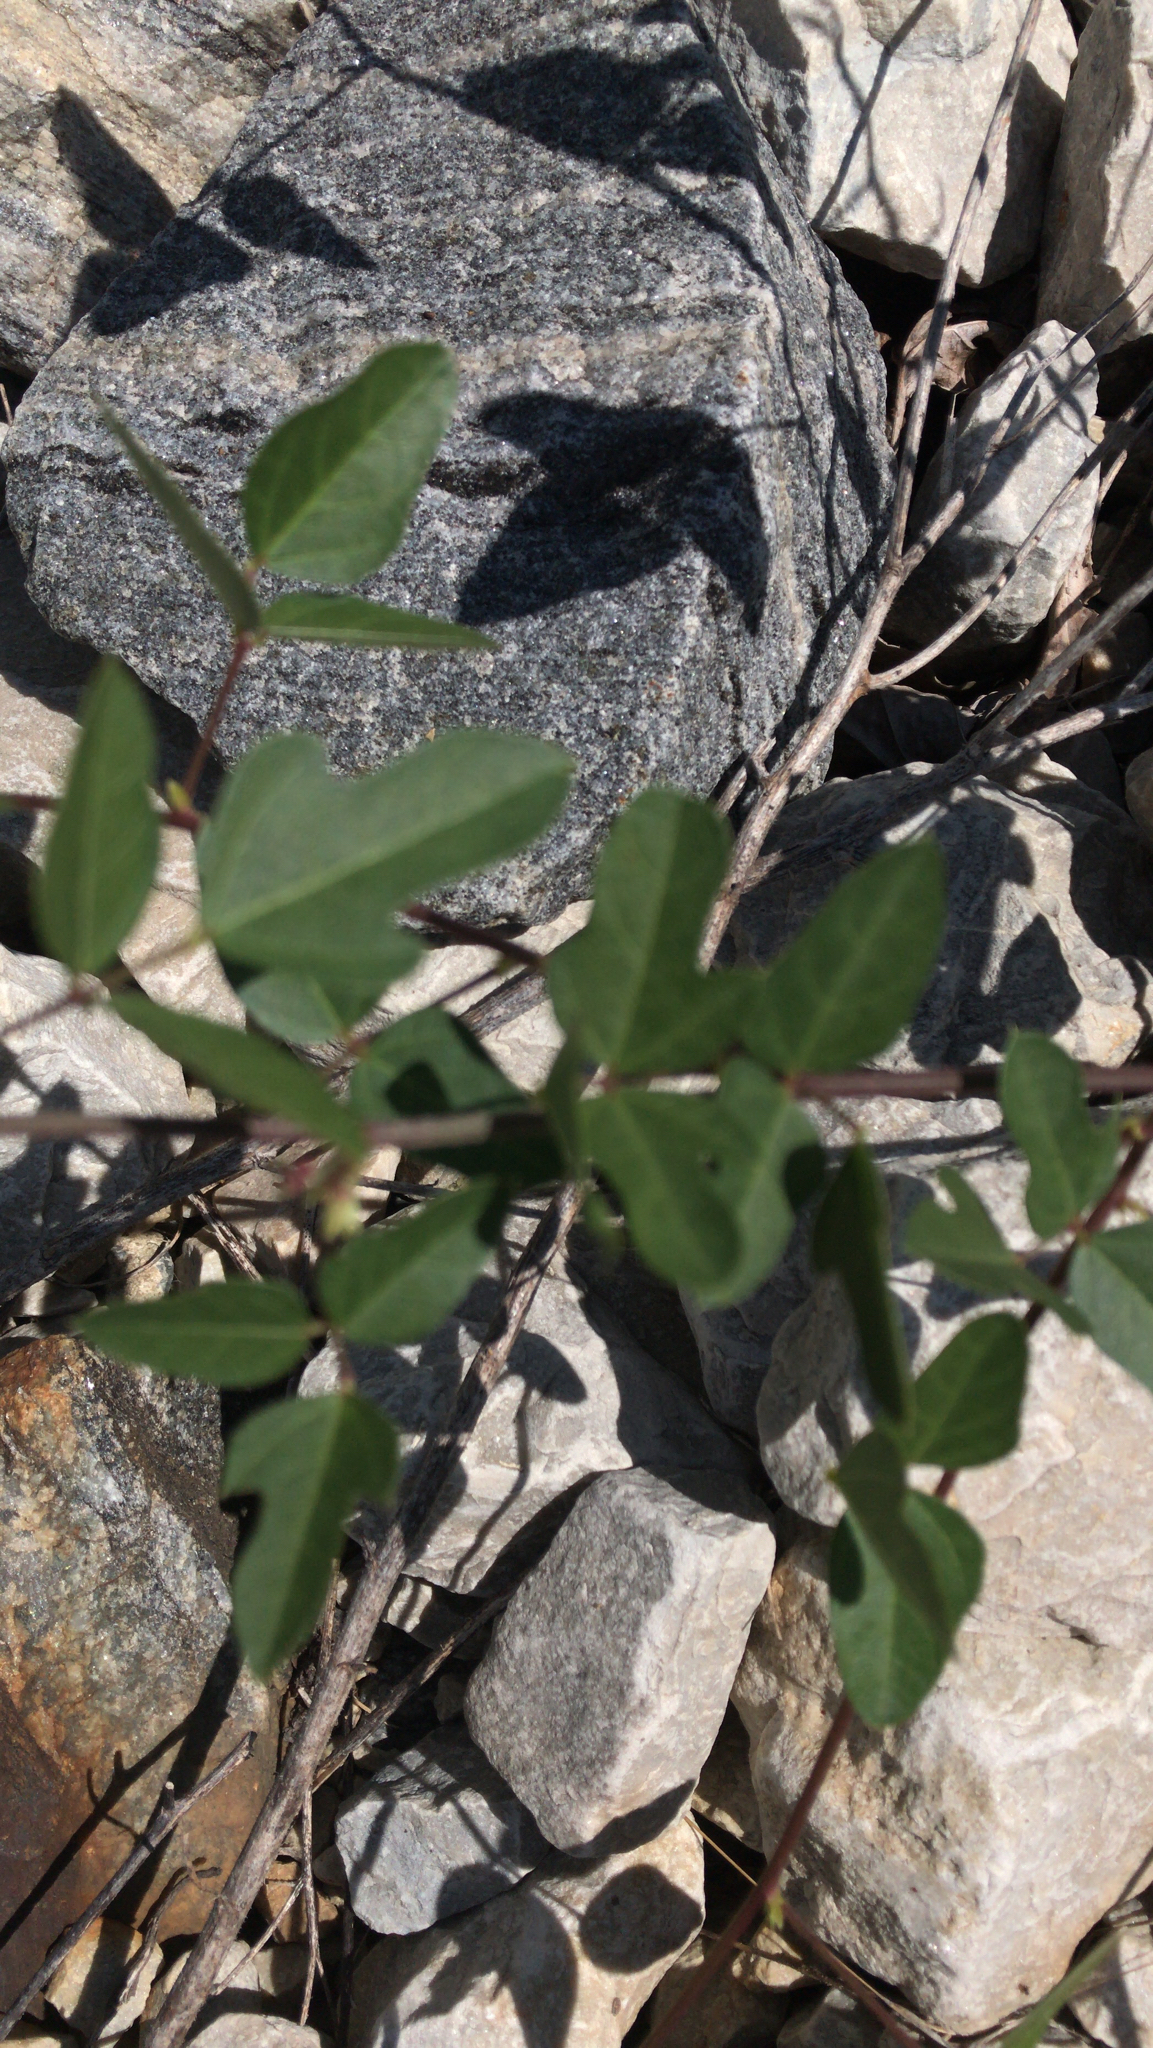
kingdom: Plantae
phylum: Tracheophyta
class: Magnoliopsida
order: Fabales
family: Fabaceae
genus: Strophostyles
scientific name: Strophostyles helvola
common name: Trailing wild bean
